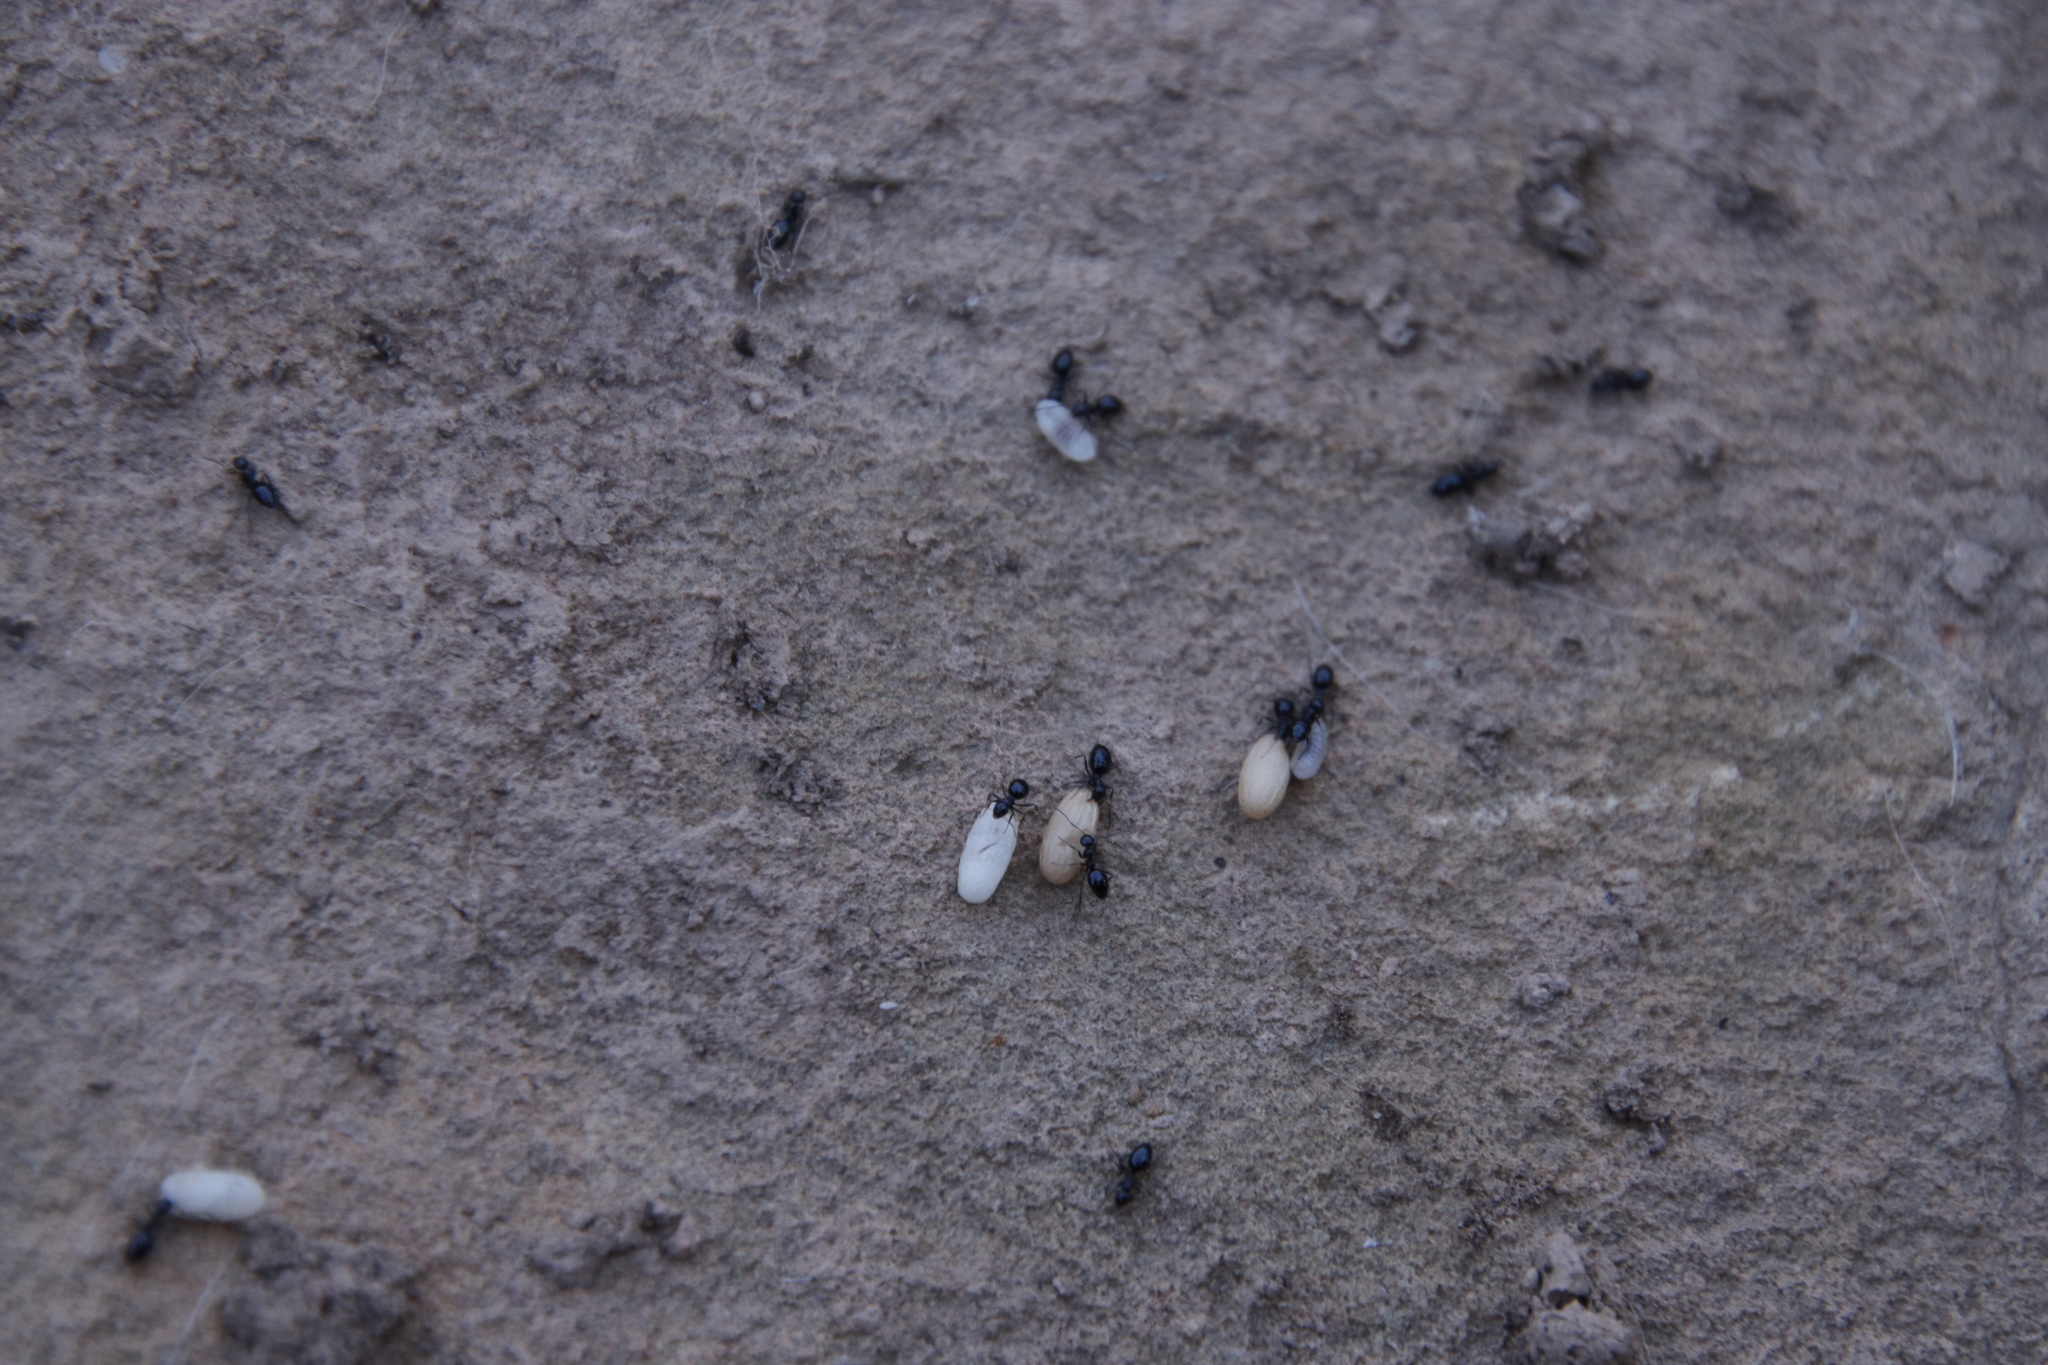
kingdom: Animalia
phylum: Arthropoda
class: Insecta
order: Hymenoptera
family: Formicidae
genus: Lepisiota
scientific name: Lepisiota capensis
